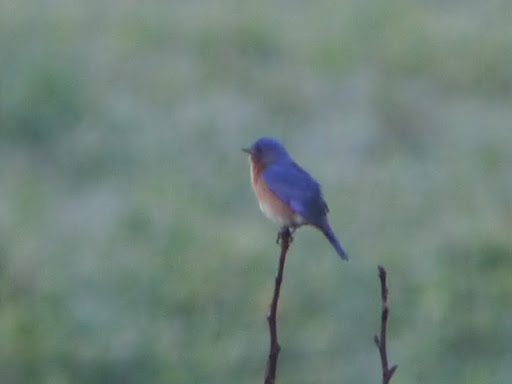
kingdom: Animalia
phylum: Chordata
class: Aves
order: Passeriformes
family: Turdidae
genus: Sialia
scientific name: Sialia sialis
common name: Eastern bluebird
